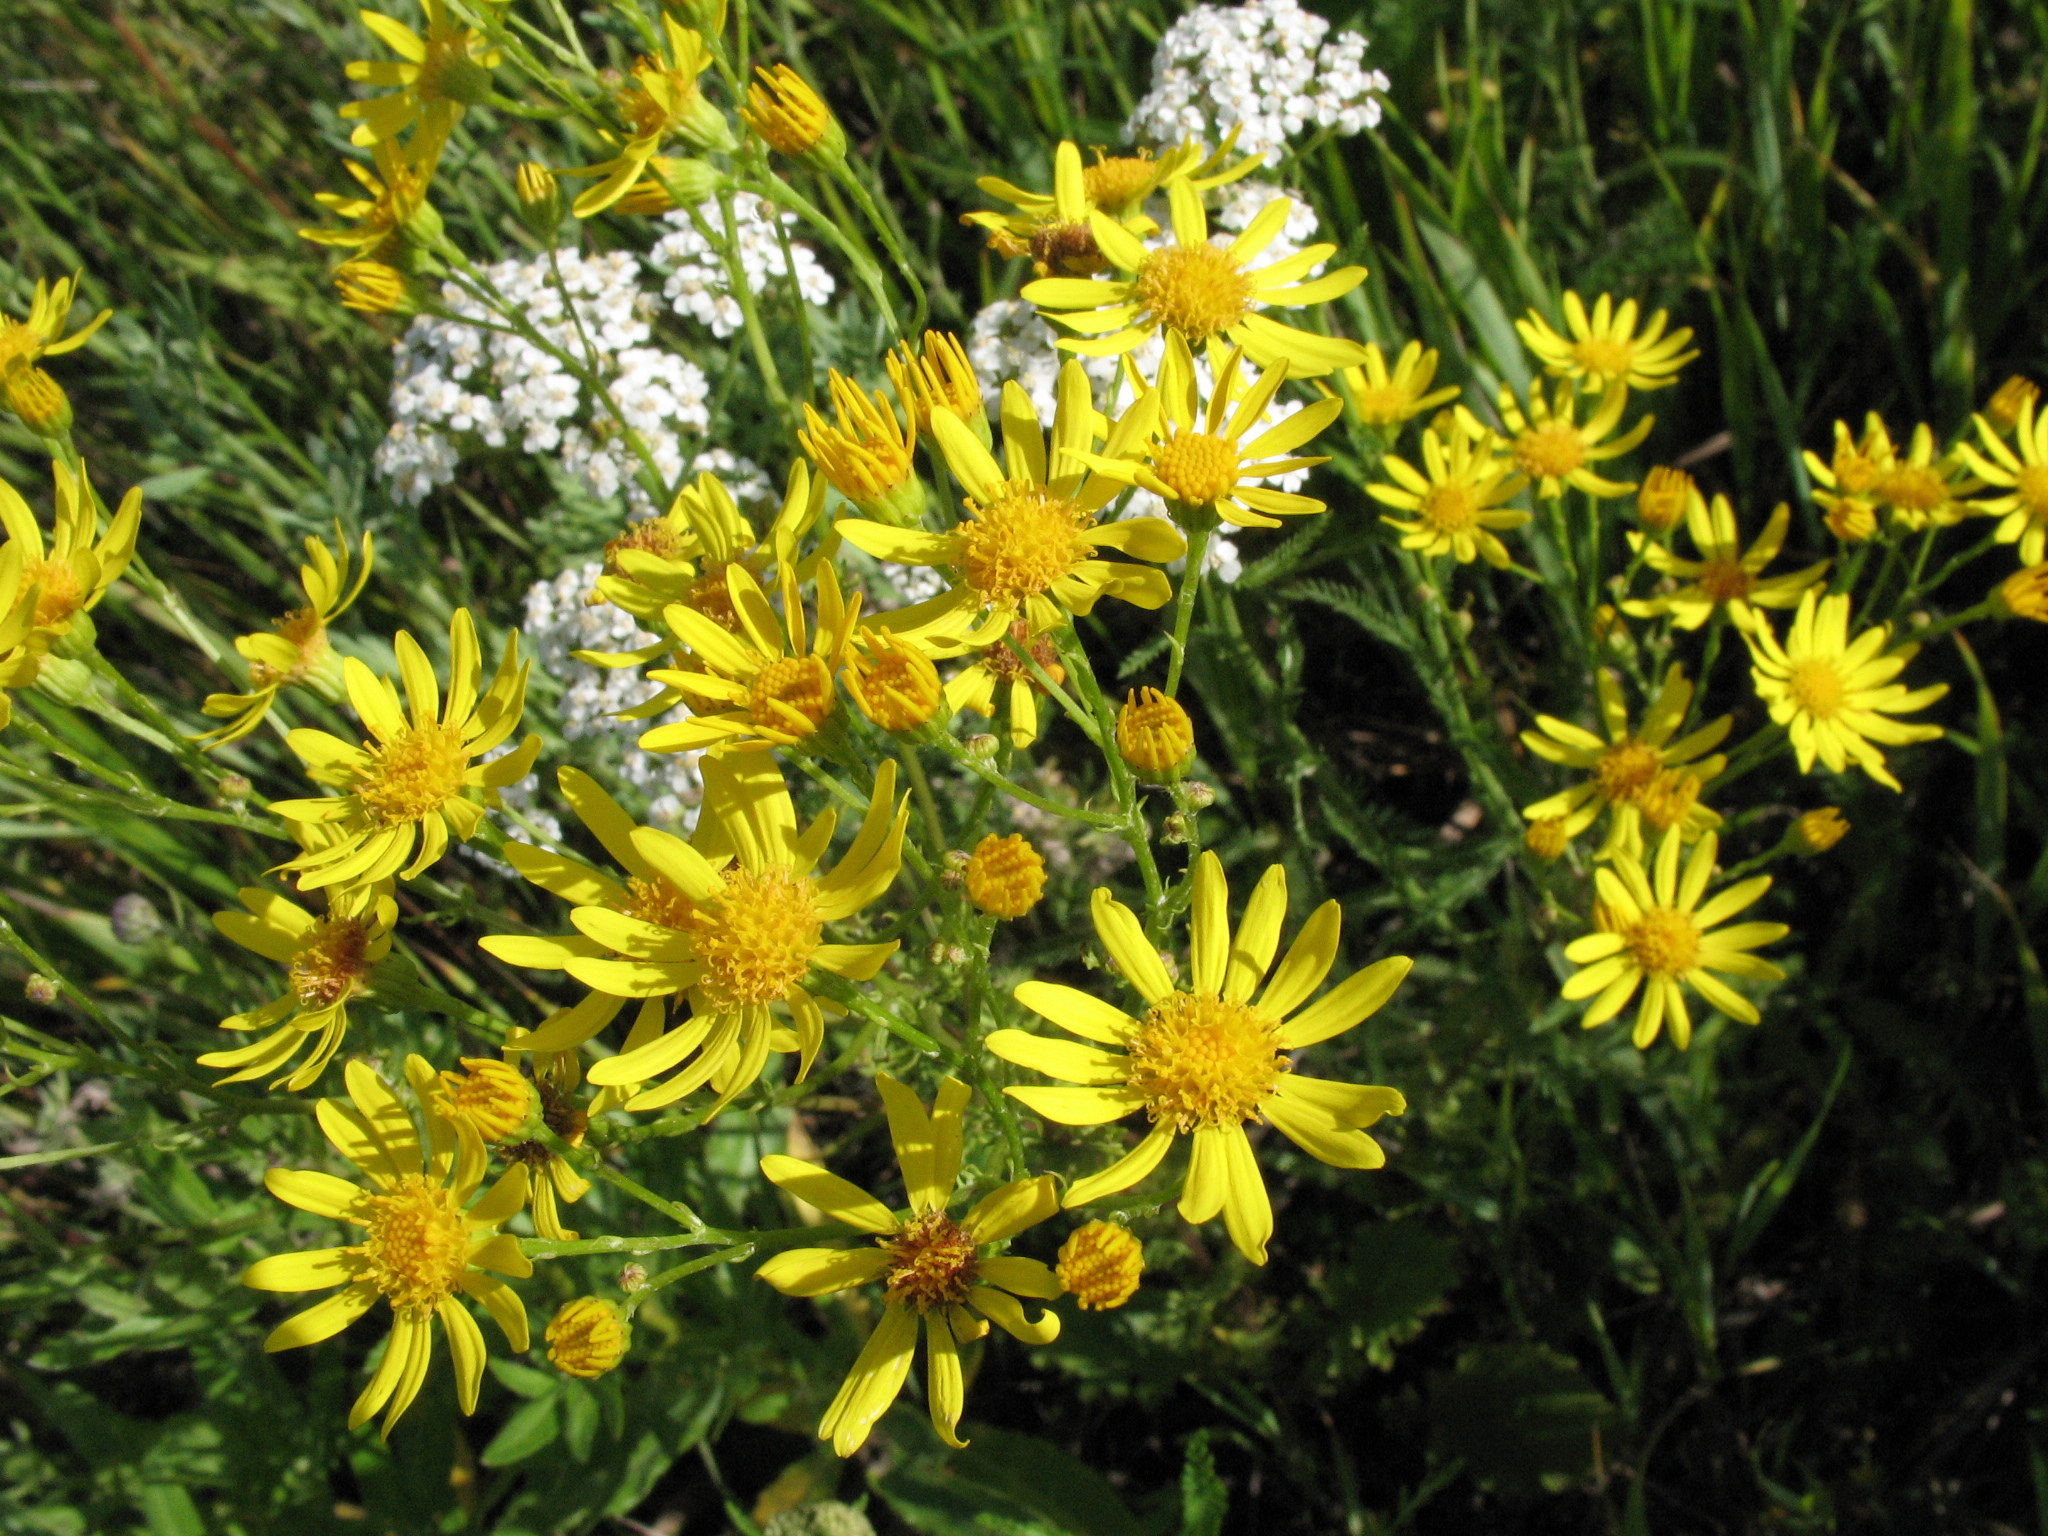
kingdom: Plantae
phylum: Tracheophyta
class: Magnoliopsida
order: Asterales
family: Asteraceae
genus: Jacobaea
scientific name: Jacobaea vulgaris
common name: Stinking willie
